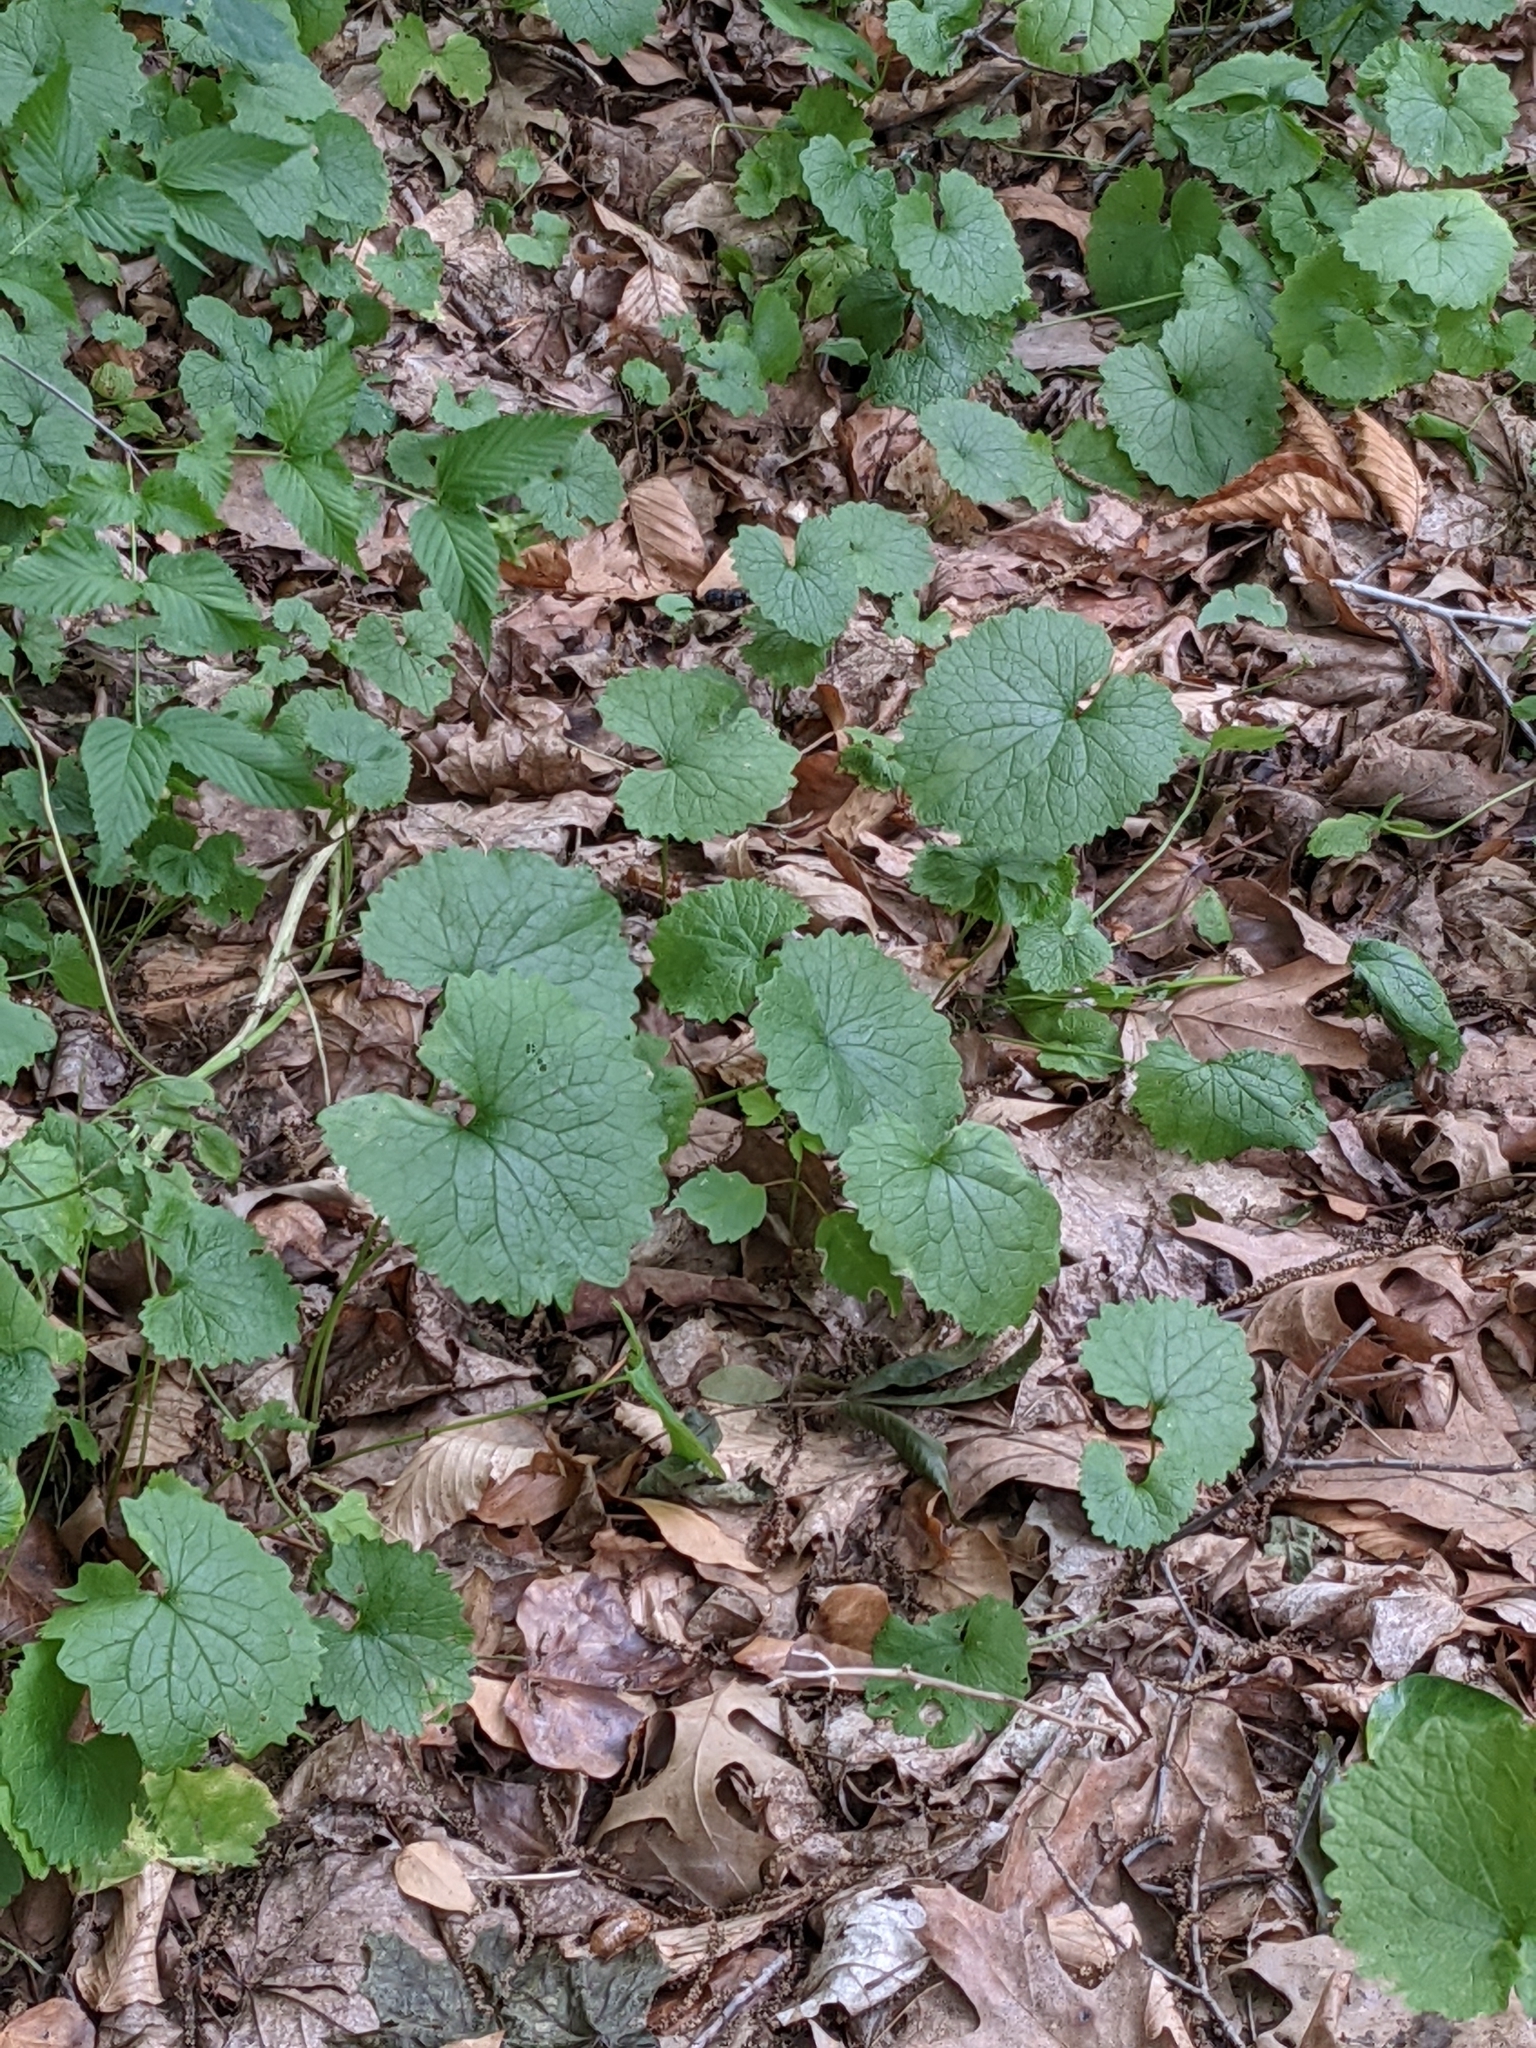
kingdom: Plantae
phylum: Tracheophyta
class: Magnoliopsida
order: Brassicales
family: Brassicaceae
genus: Alliaria
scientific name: Alliaria petiolata
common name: Garlic mustard
